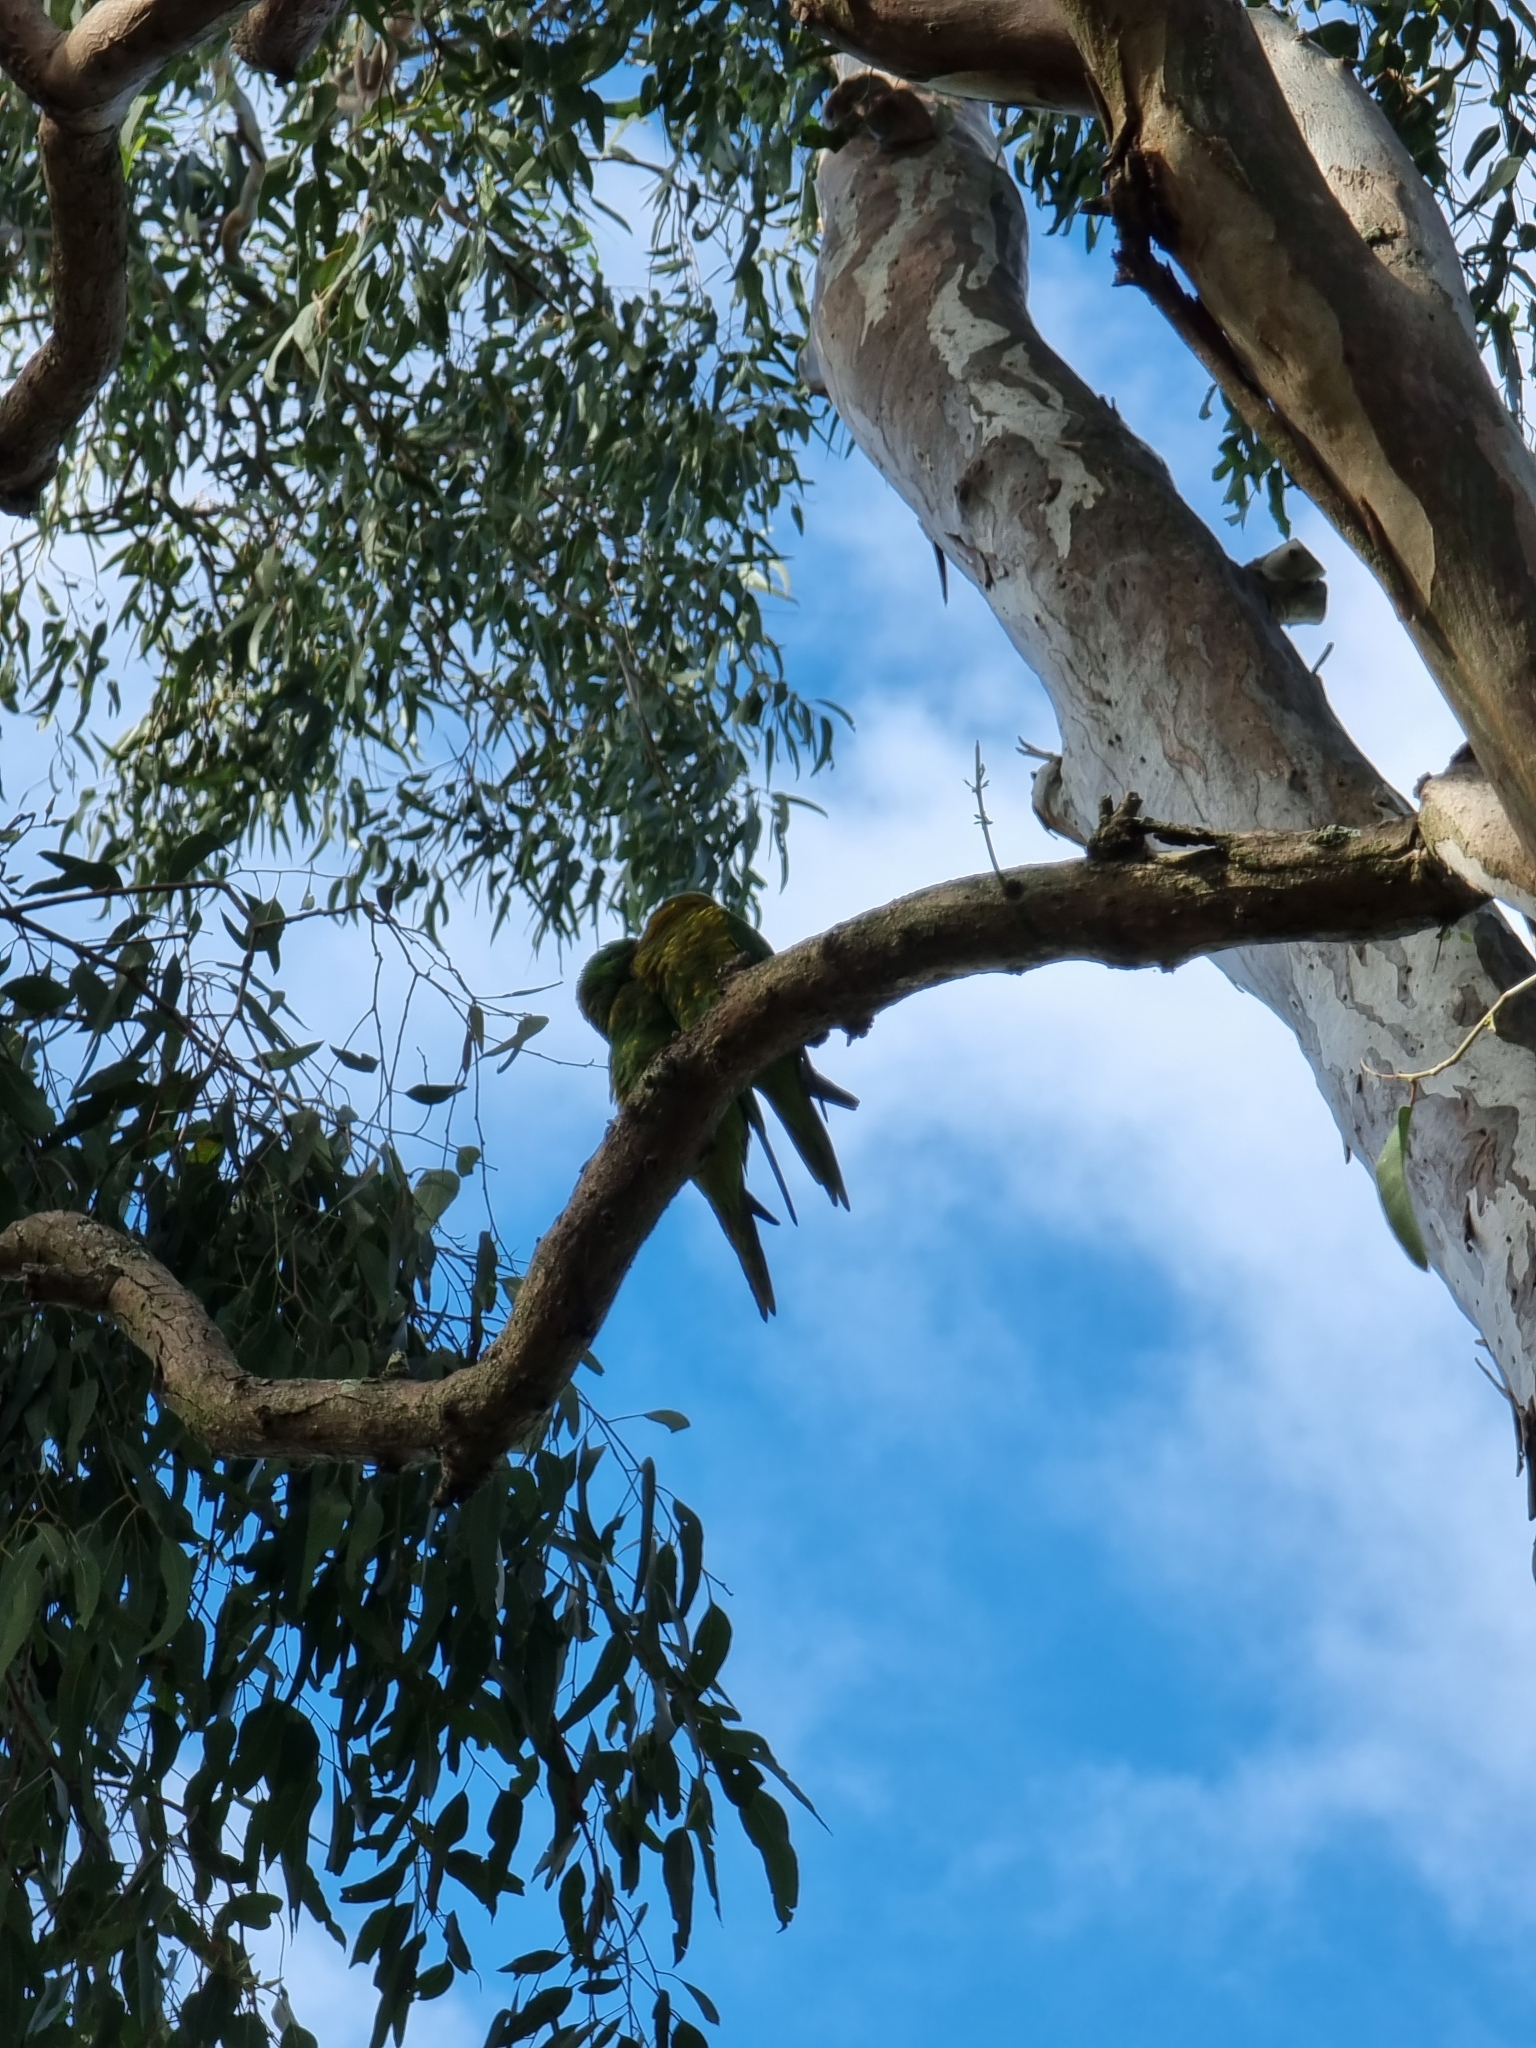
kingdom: Animalia
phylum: Chordata
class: Aves
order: Psittaciformes
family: Psittacidae
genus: Trichoglossus
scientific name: Trichoglossus chlorolepidotus
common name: Scaly-breasted lorikeet
